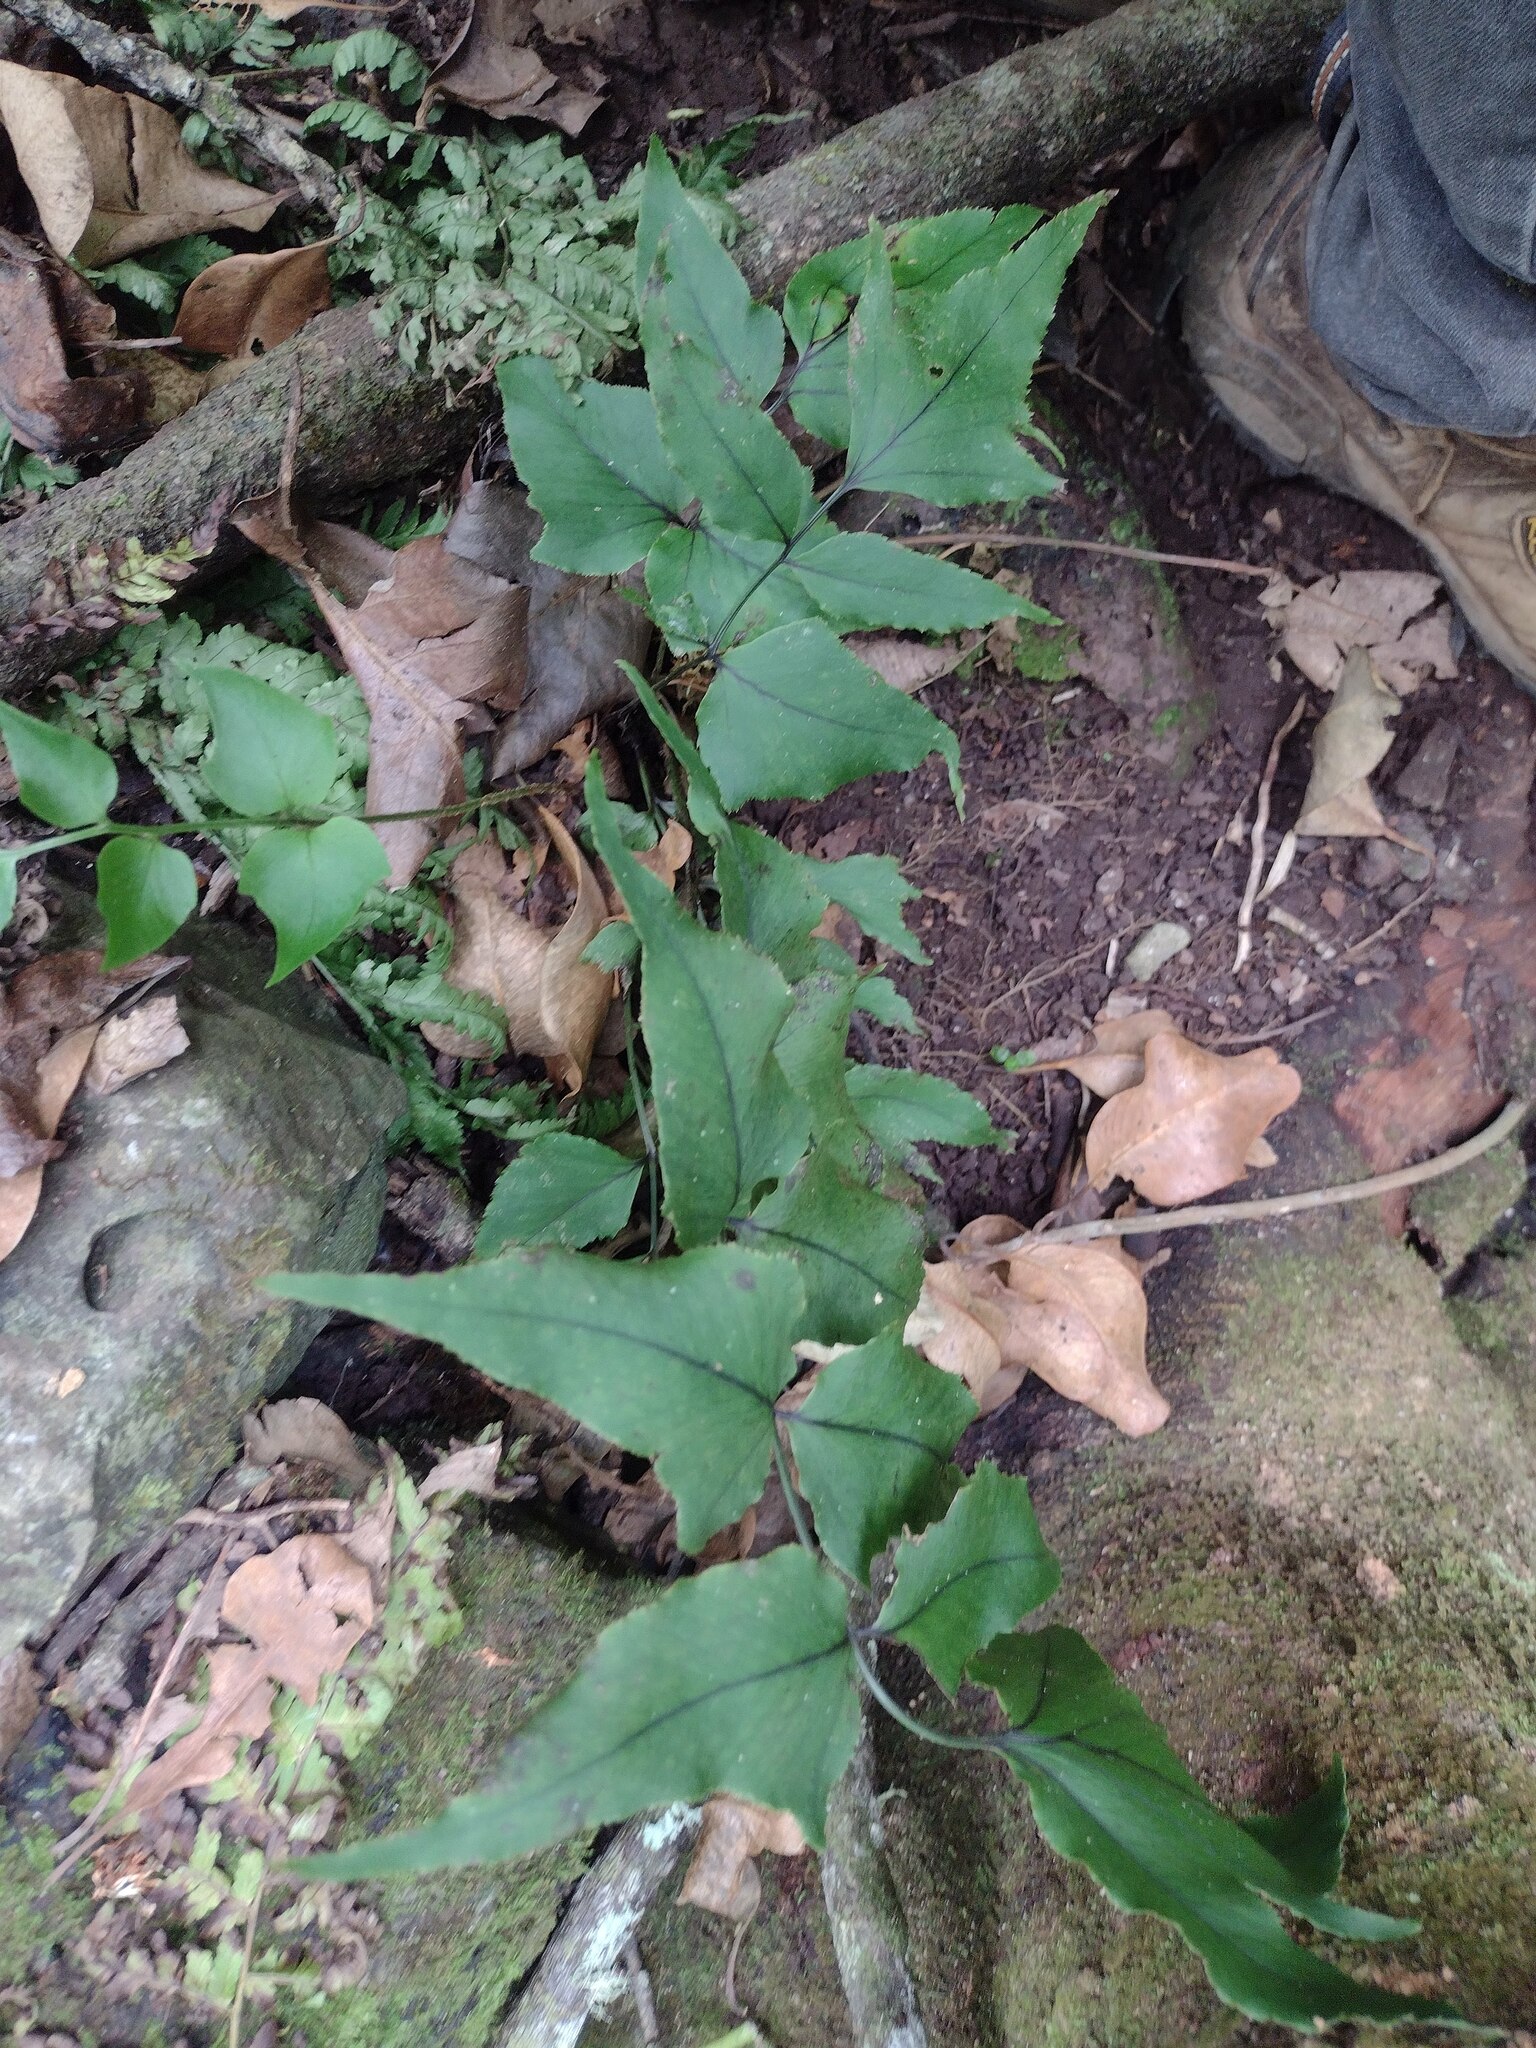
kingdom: Plantae
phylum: Tracheophyta
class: Polypodiopsida
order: Polypodiales
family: Dryopteridaceae
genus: Cyrtomium
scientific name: Cyrtomium caryotideum
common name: Asiatic holly fern
